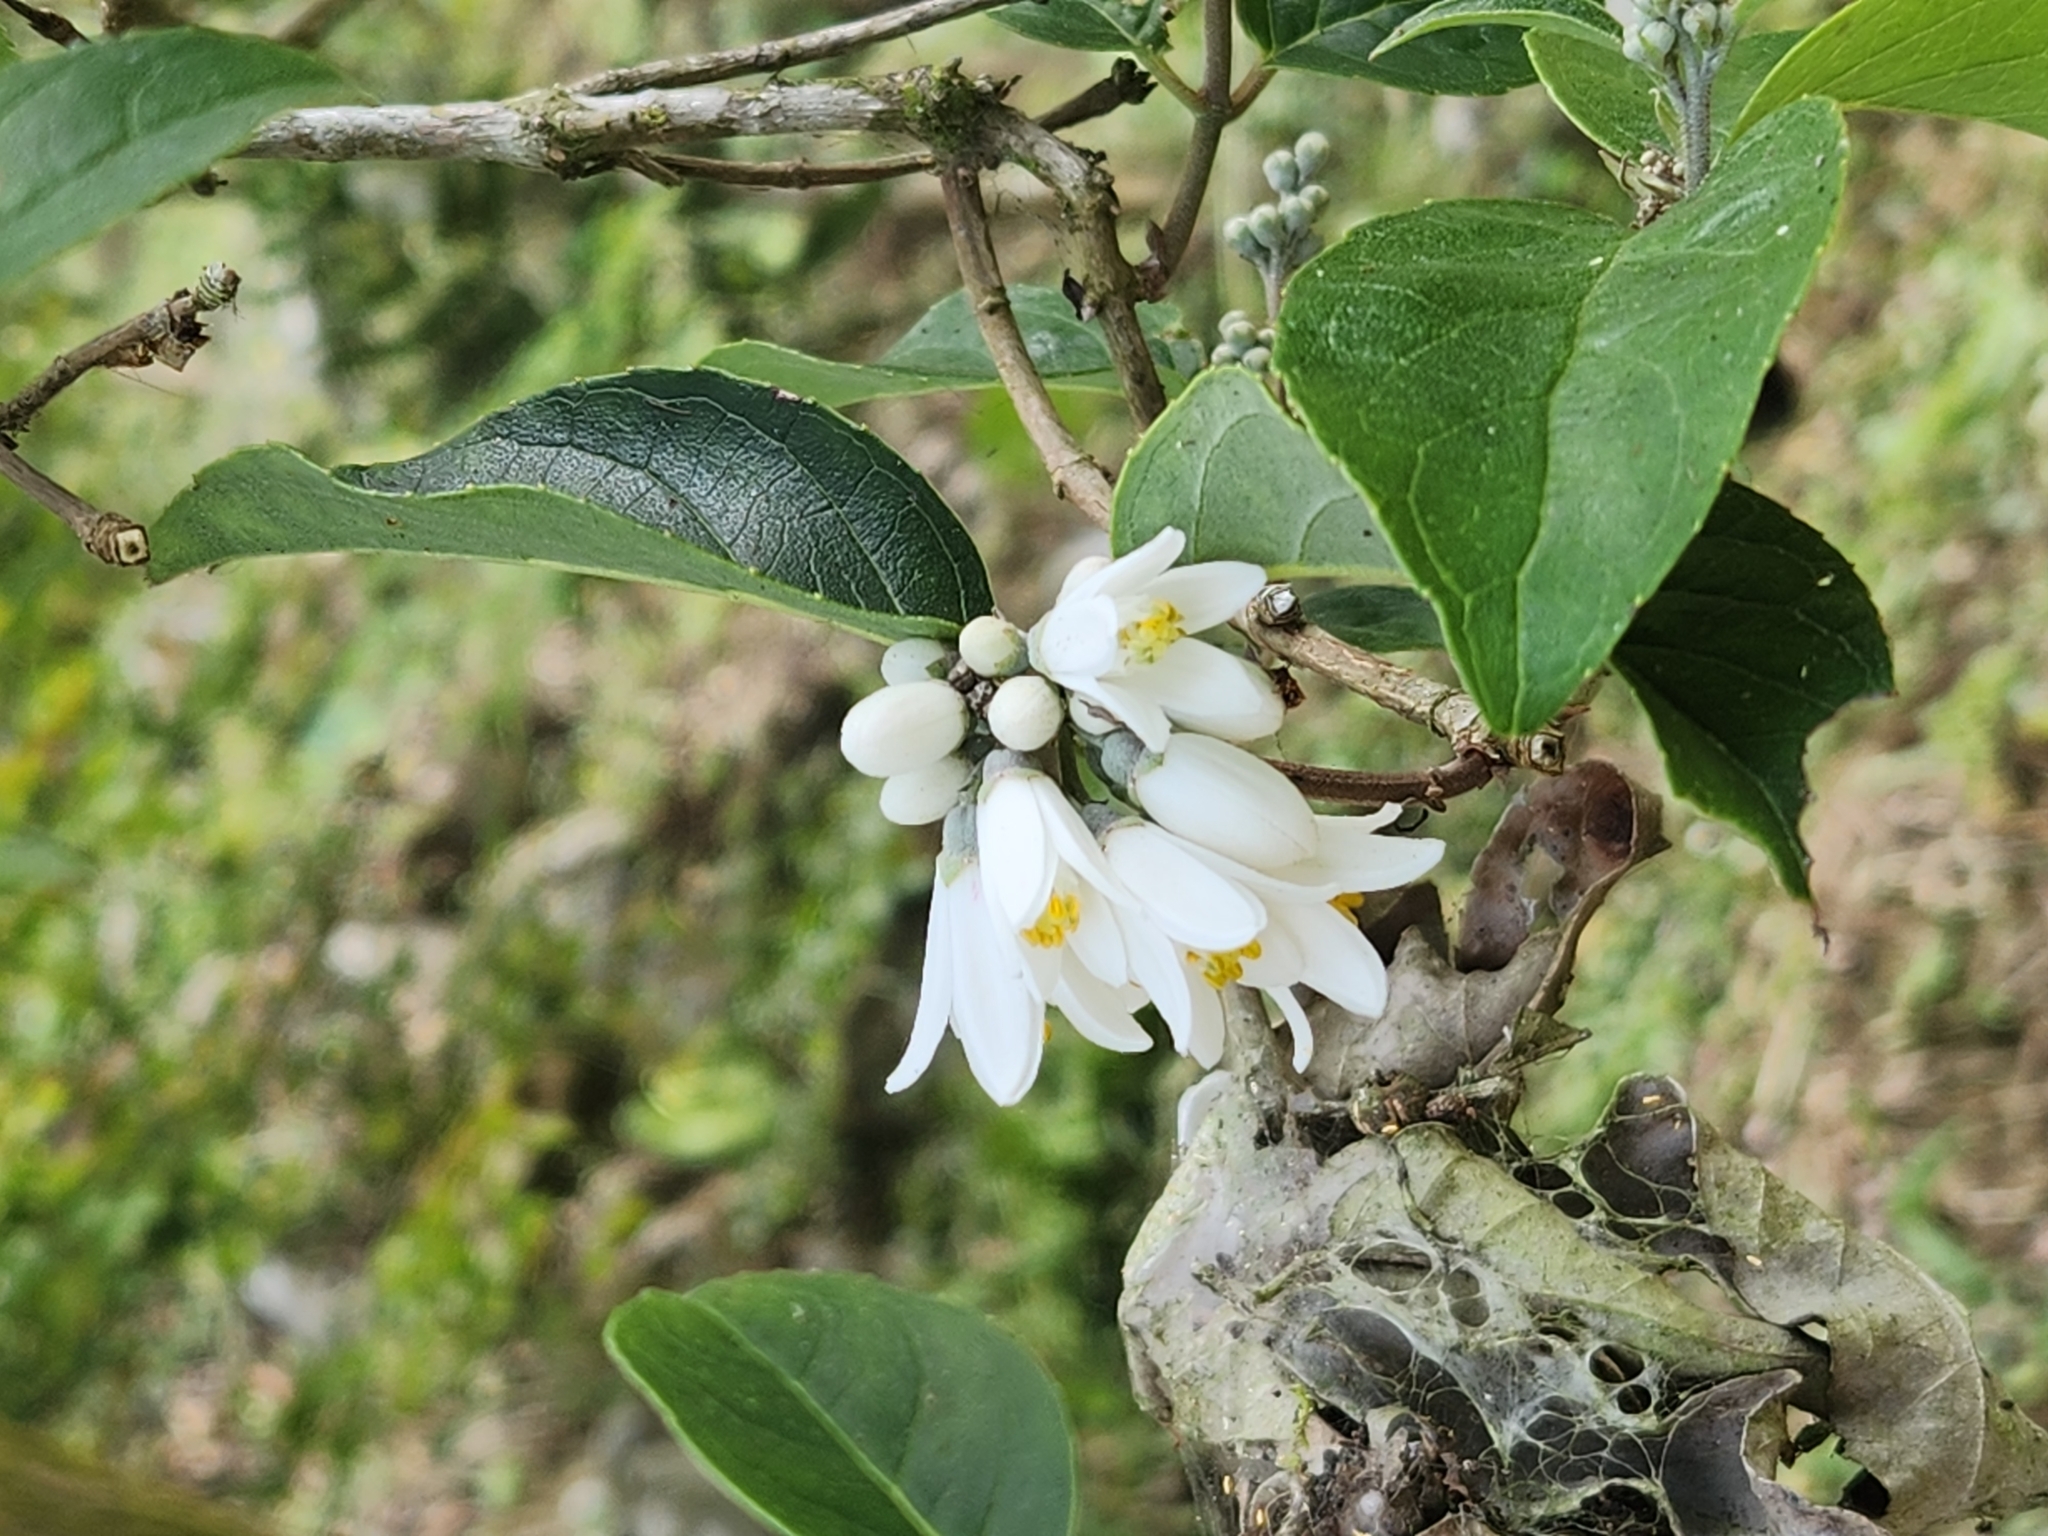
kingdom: Plantae
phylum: Tracheophyta
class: Magnoliopsida
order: Ericales
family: Styracaceae
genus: Alniphyllum
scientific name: Alniphyllum pterospermum
